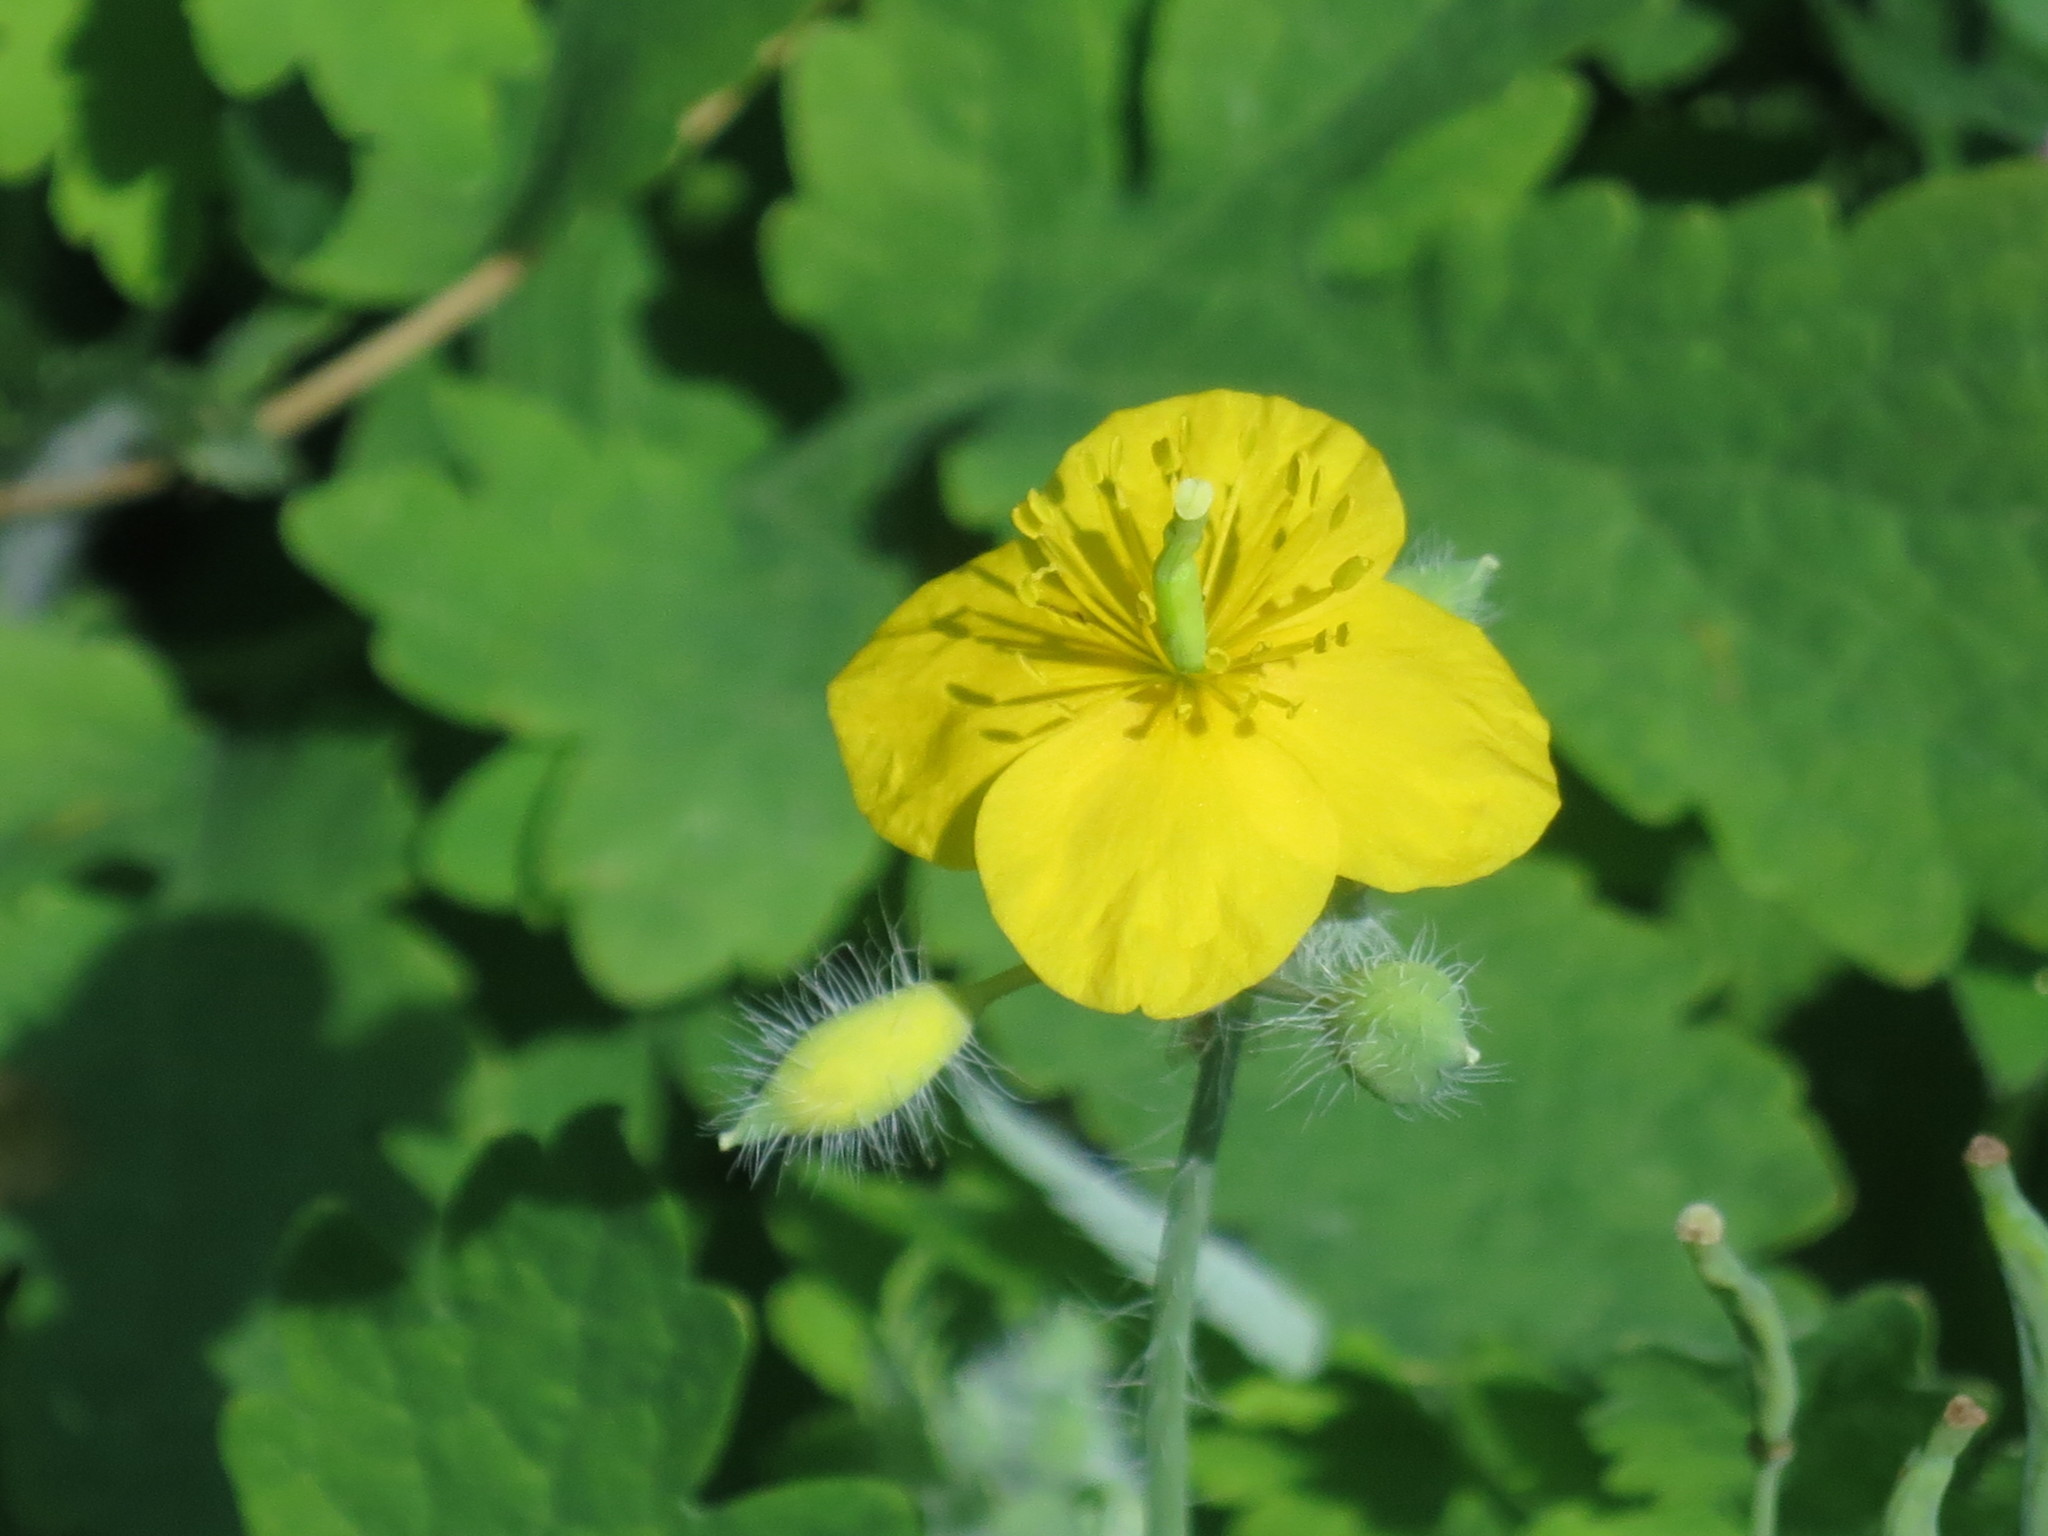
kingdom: Plantae
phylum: Tracheophyta
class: Magnoliopsida
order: Ranunculales
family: Papaveraceae
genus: Chelidonium
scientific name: Chelidonium majus
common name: Greater celandine
